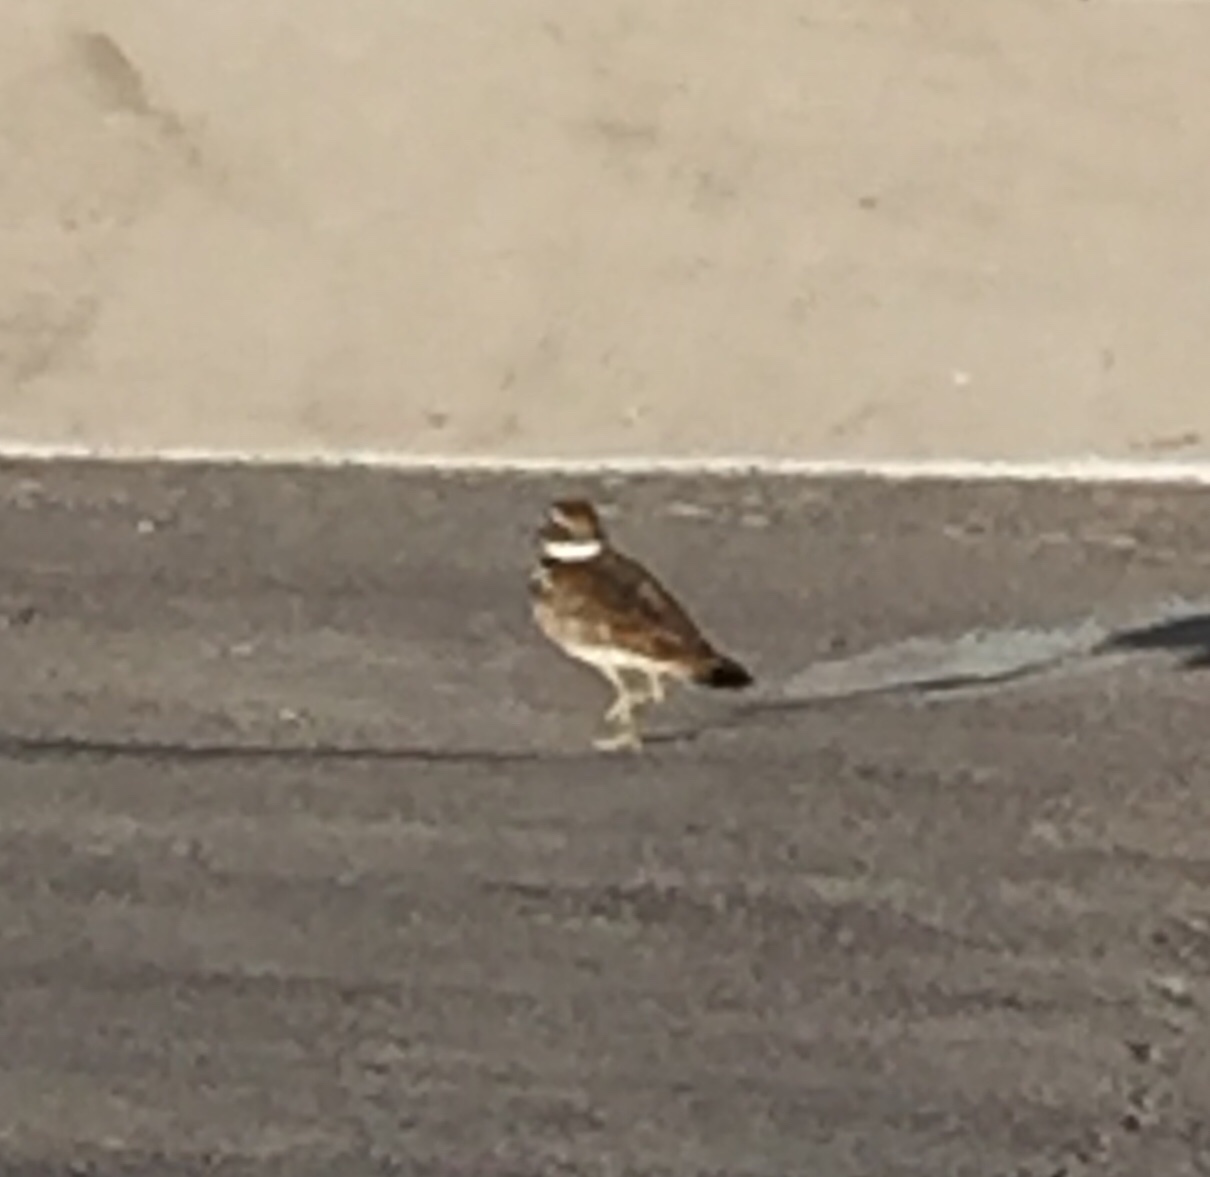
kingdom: Animalia
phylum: Chordata
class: Aves
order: Charadriiformes
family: Charadriidae
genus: Charadrius
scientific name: Charadrius vociferus
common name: Killdeer
